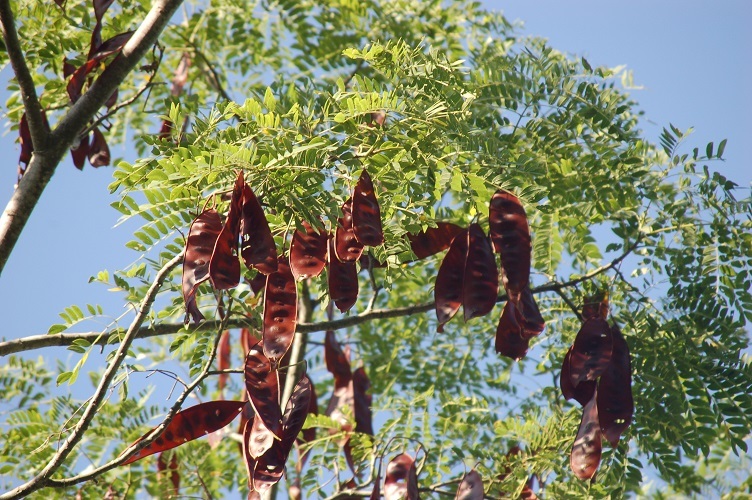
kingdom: Plantae
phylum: Tracheophyta
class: Magnoliopsida
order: Fabales
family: Fabaceae
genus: Albizia
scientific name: Albizia occidentalis
